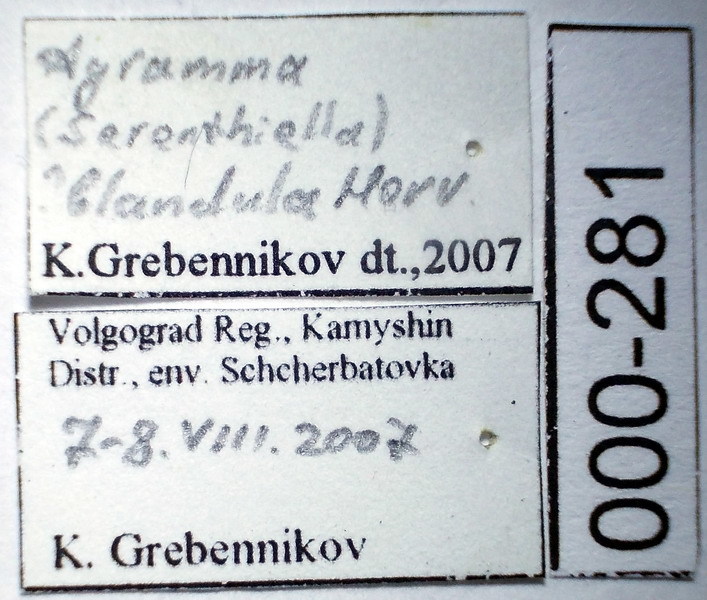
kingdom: Animalia
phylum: Arthropoda
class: Insecta
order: Hemiptera
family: Tingidae
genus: Agramma
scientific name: Agramma blandulum
